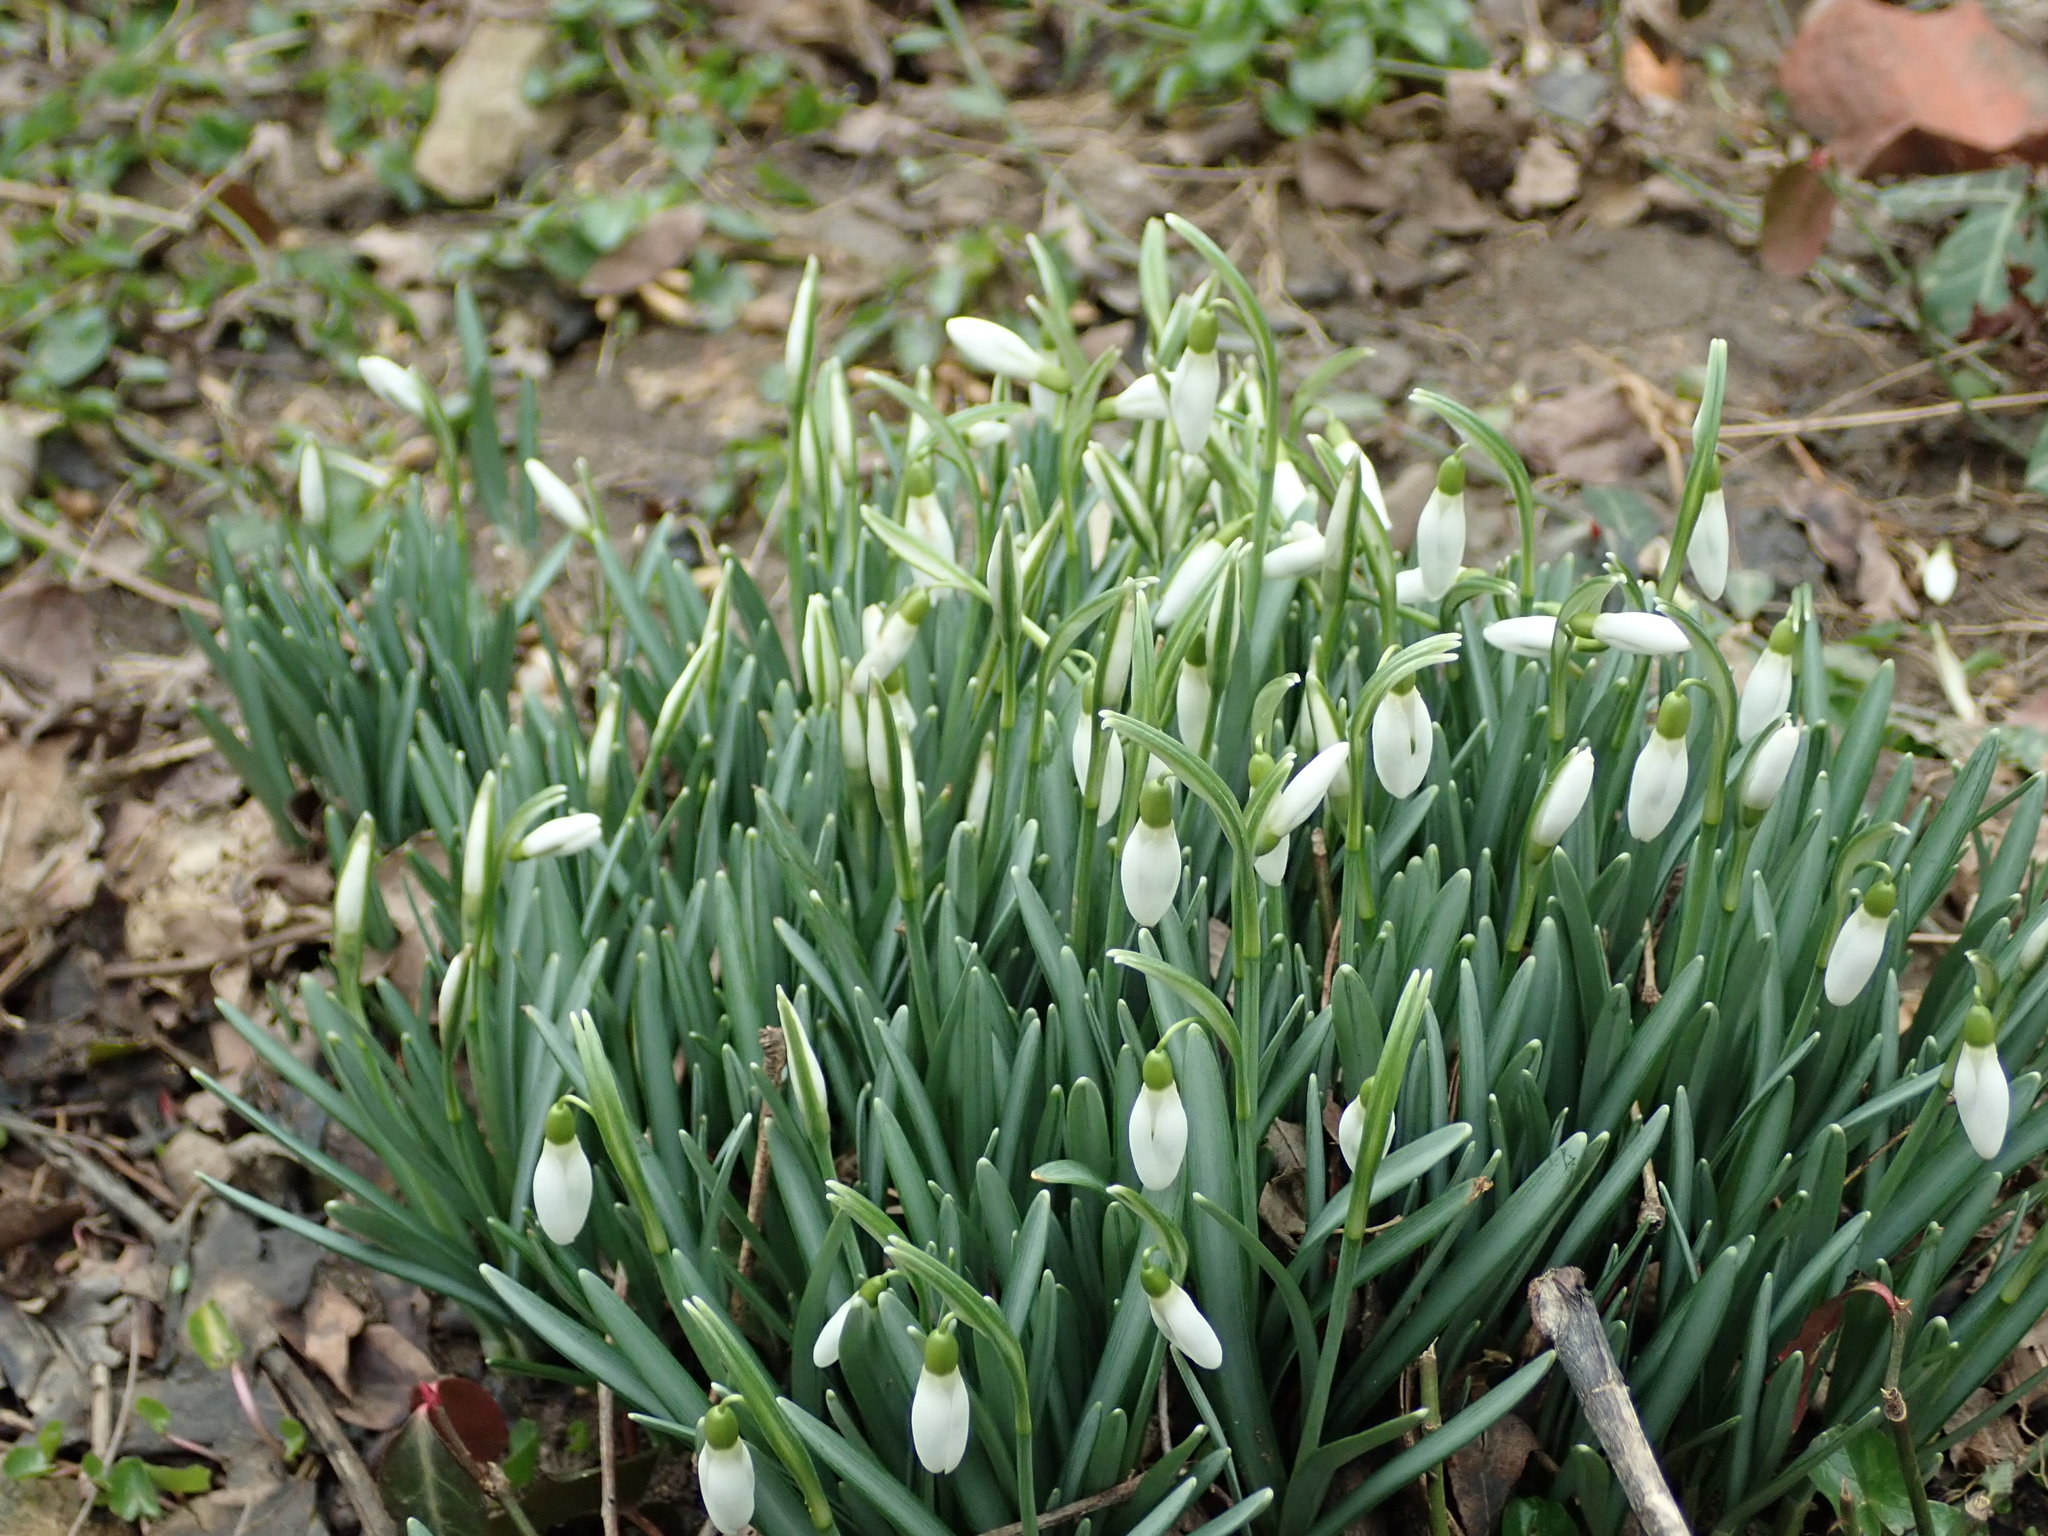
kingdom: Plantae
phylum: Tracheophyta
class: Liliopsida
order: Asparagales
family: Amaryllidaceae
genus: Galanthus
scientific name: Galanthus nivalis
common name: Snowdrop
